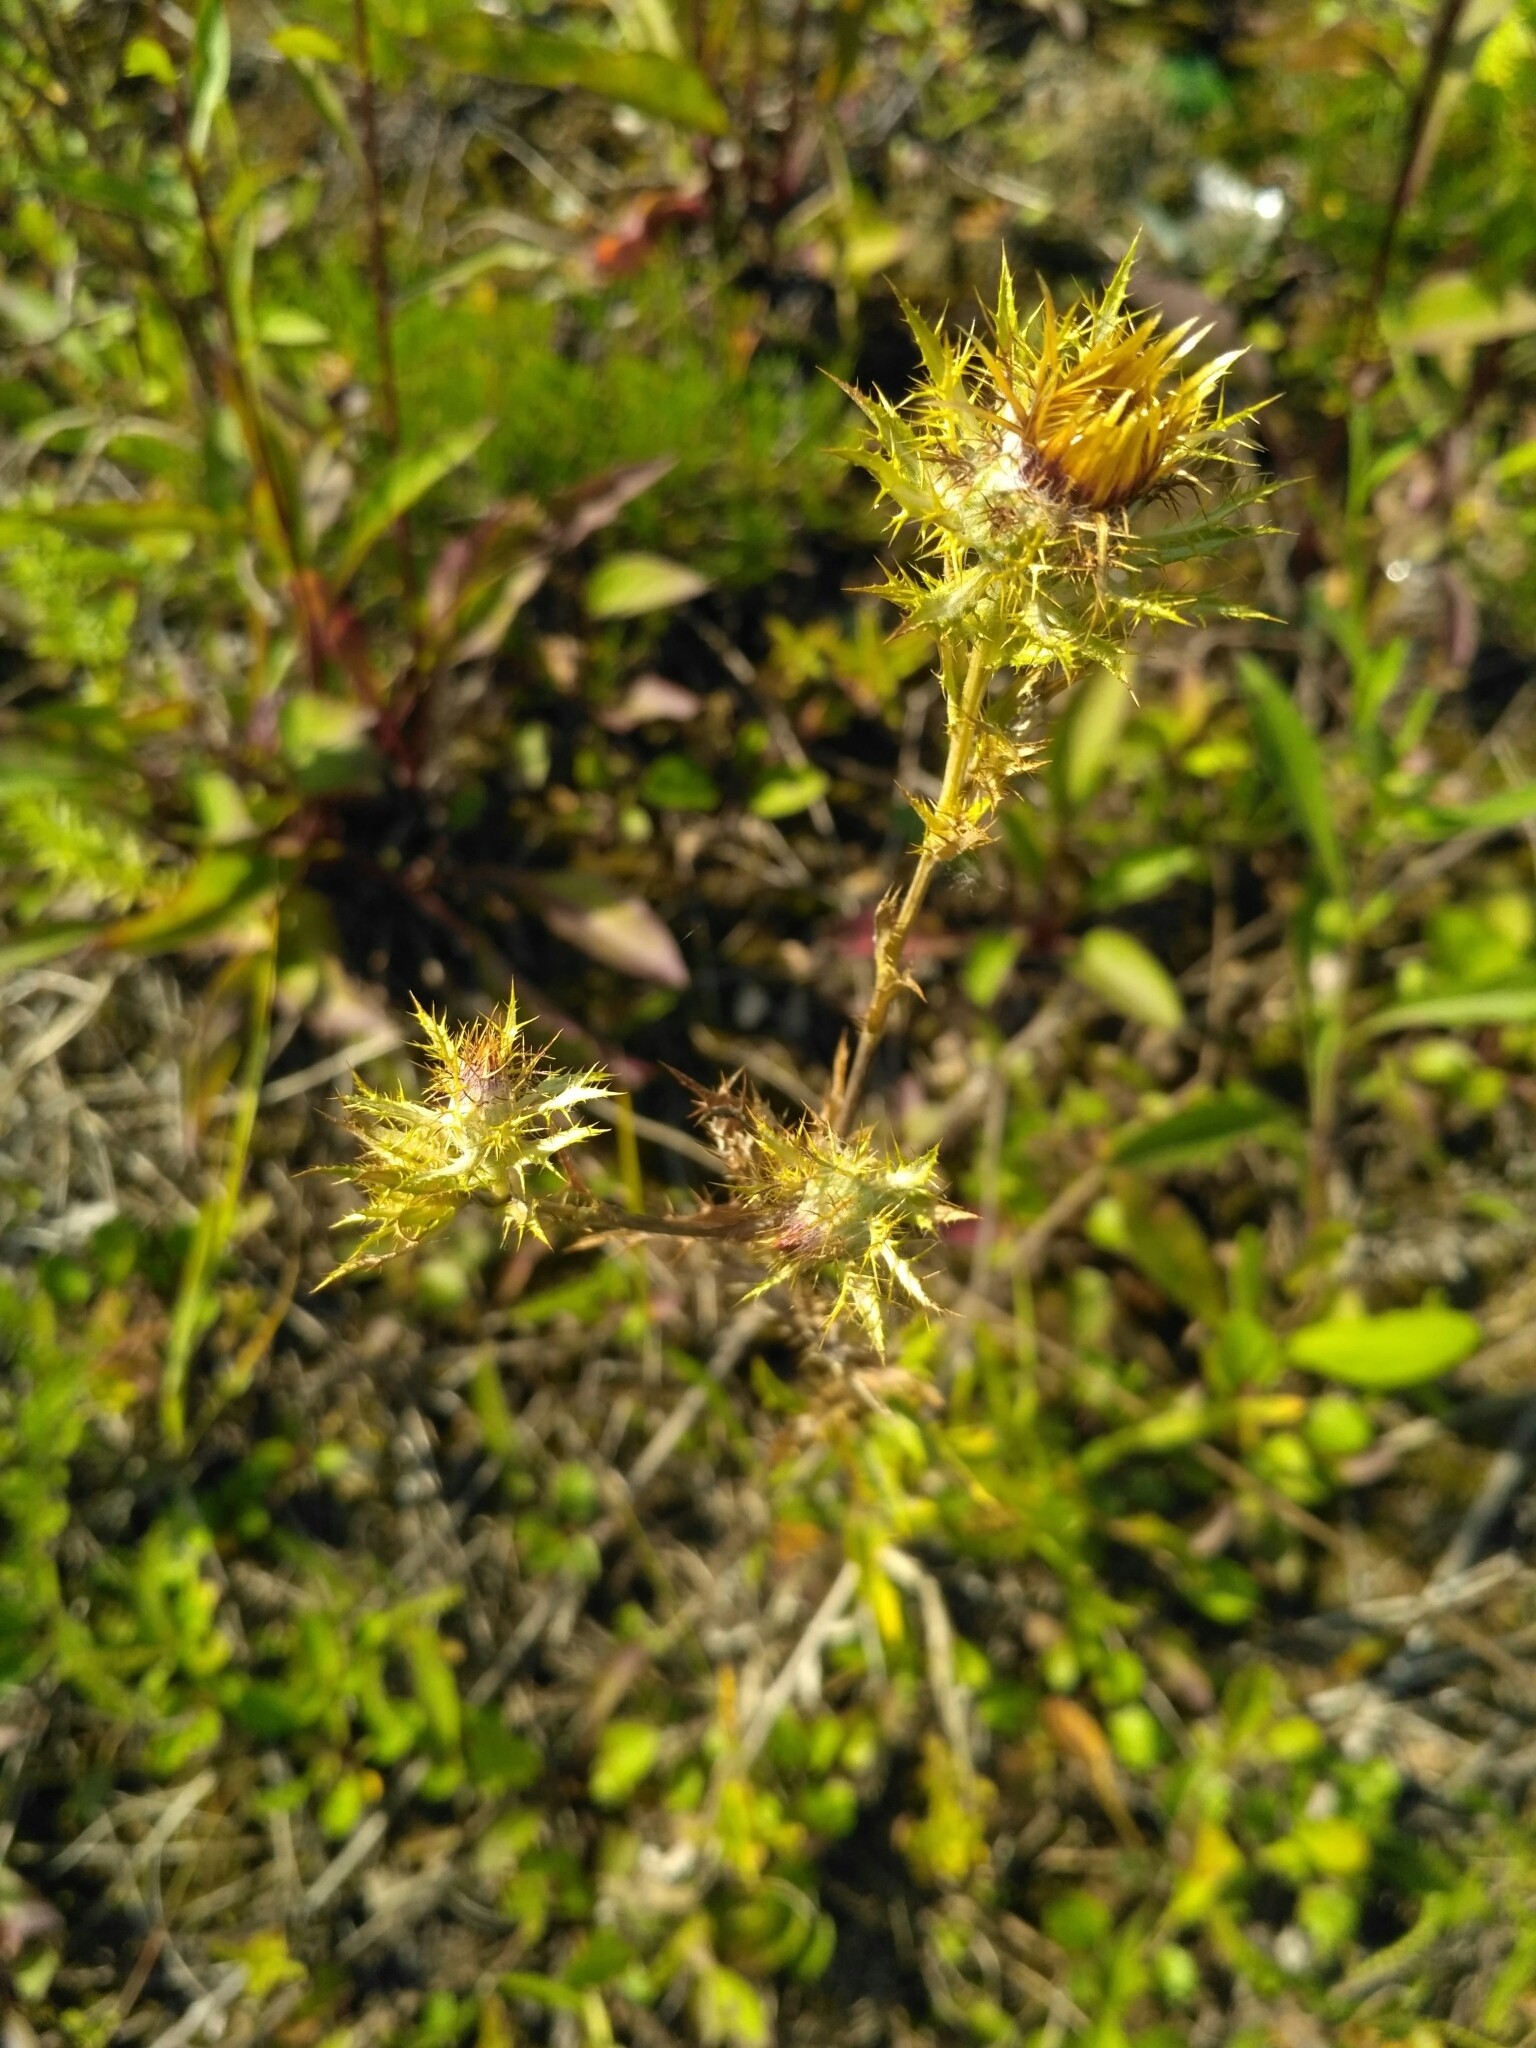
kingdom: Plantae
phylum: Tracheophyta
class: Magnoliopsida
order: Asterales
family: Asteraceae
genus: Carlina
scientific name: Carlina biebersteinii
